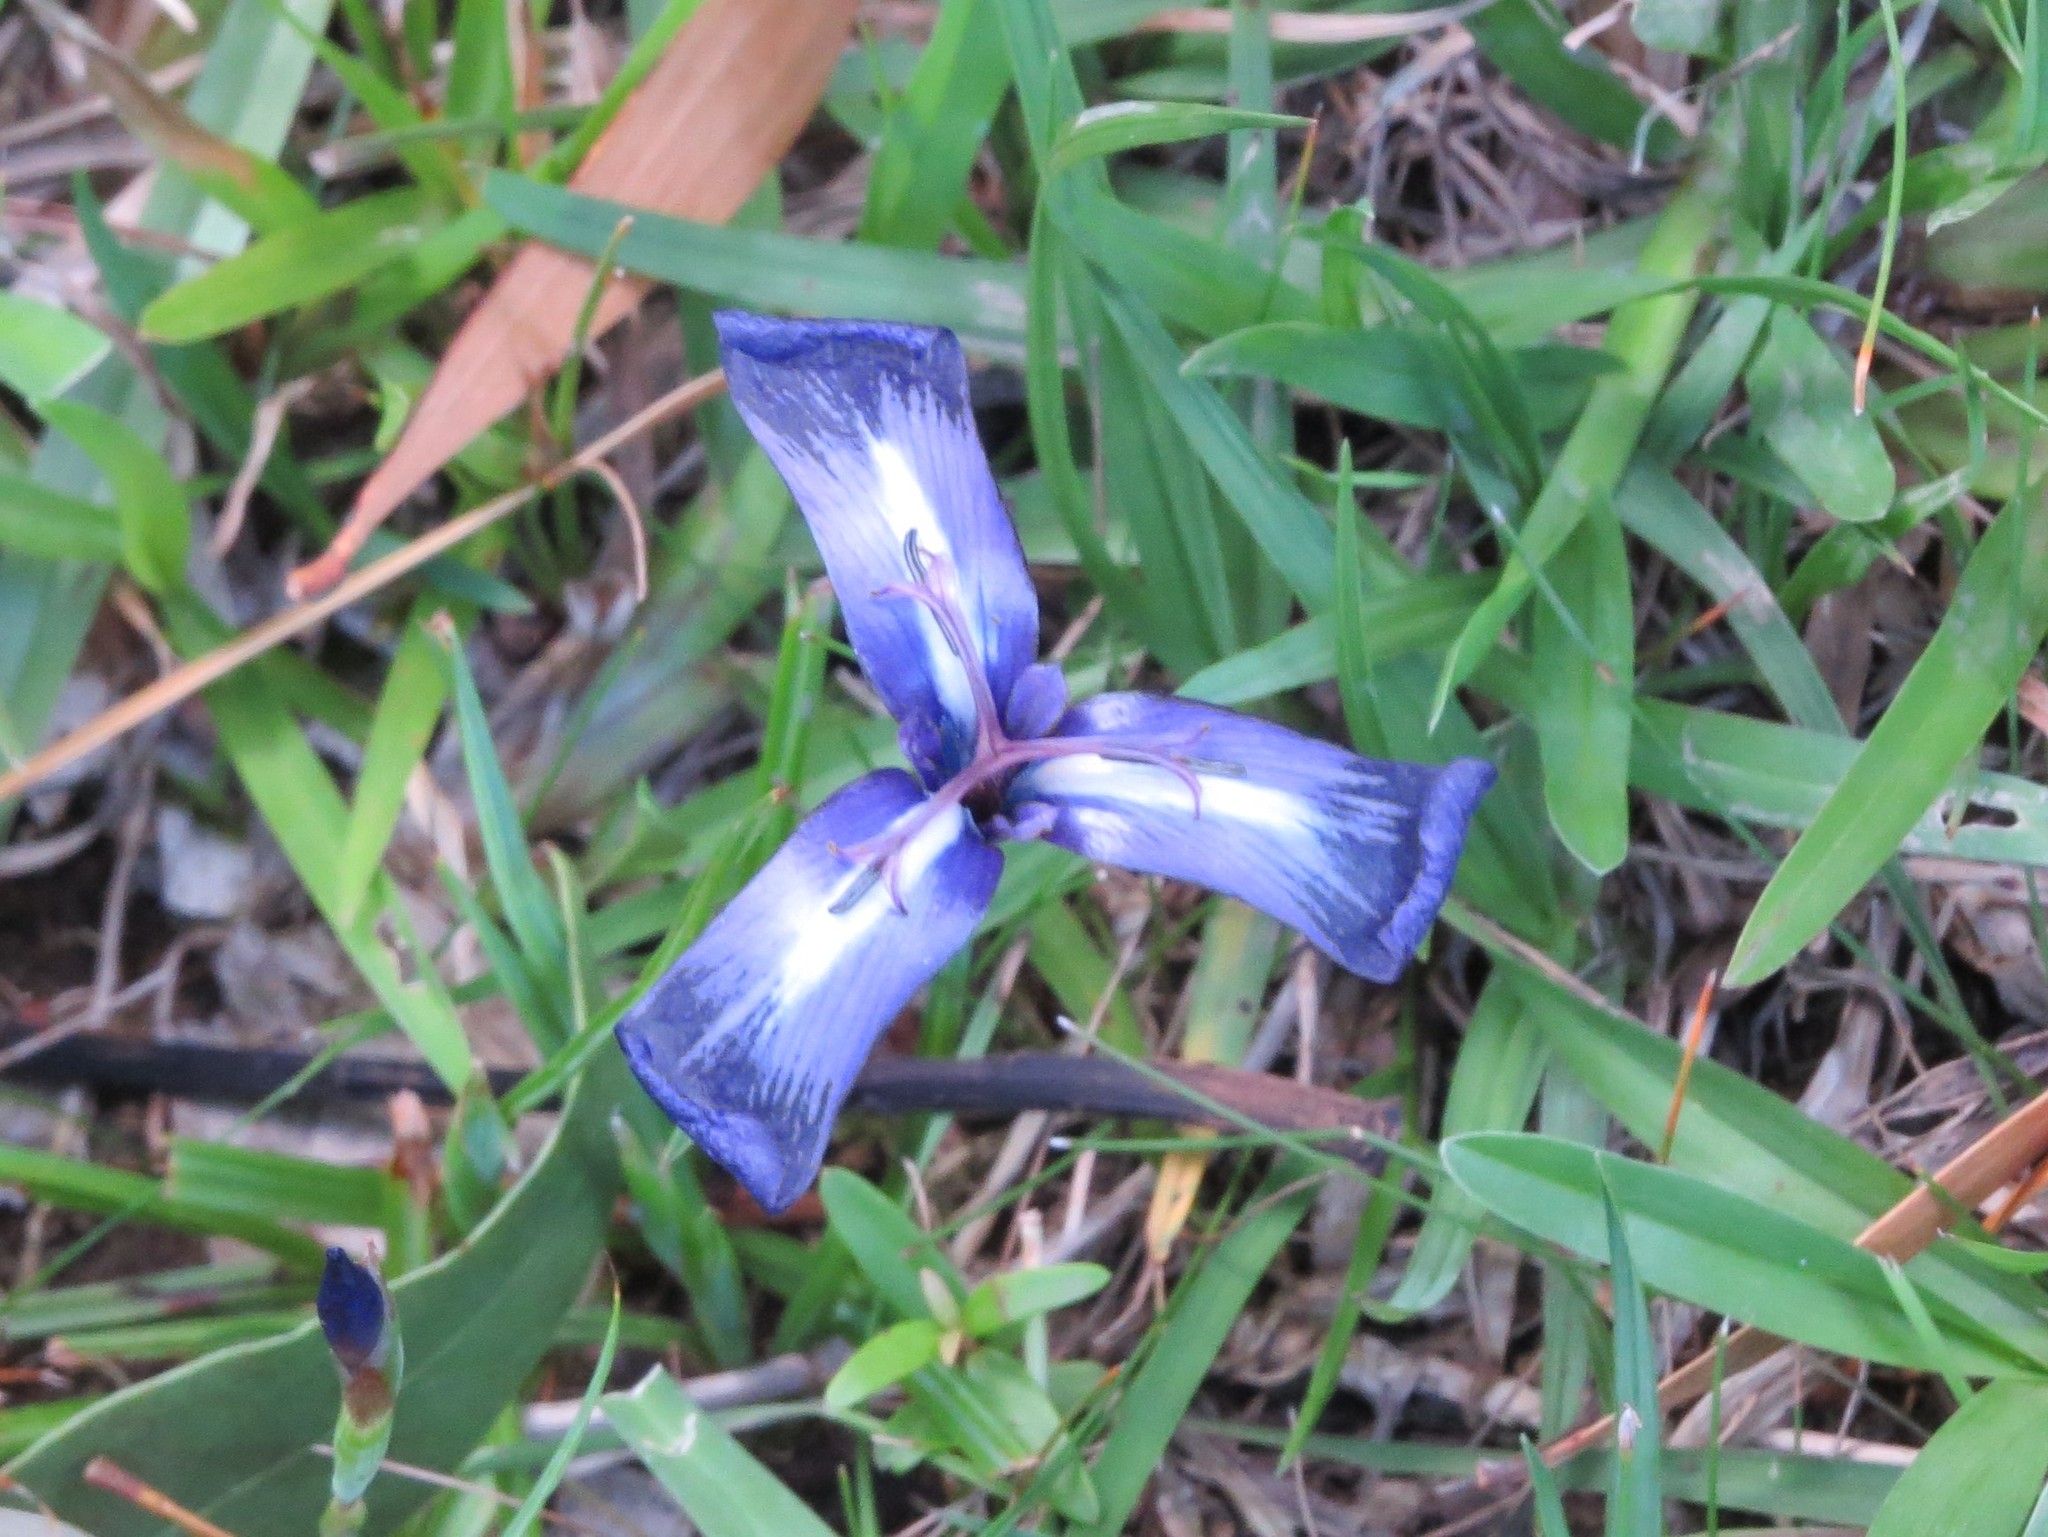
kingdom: Plantae
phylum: Tracheophyta
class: Liliopsida
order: Asparagales
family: Iridaceae
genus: Herbertia
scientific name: Herbertia pulchella
